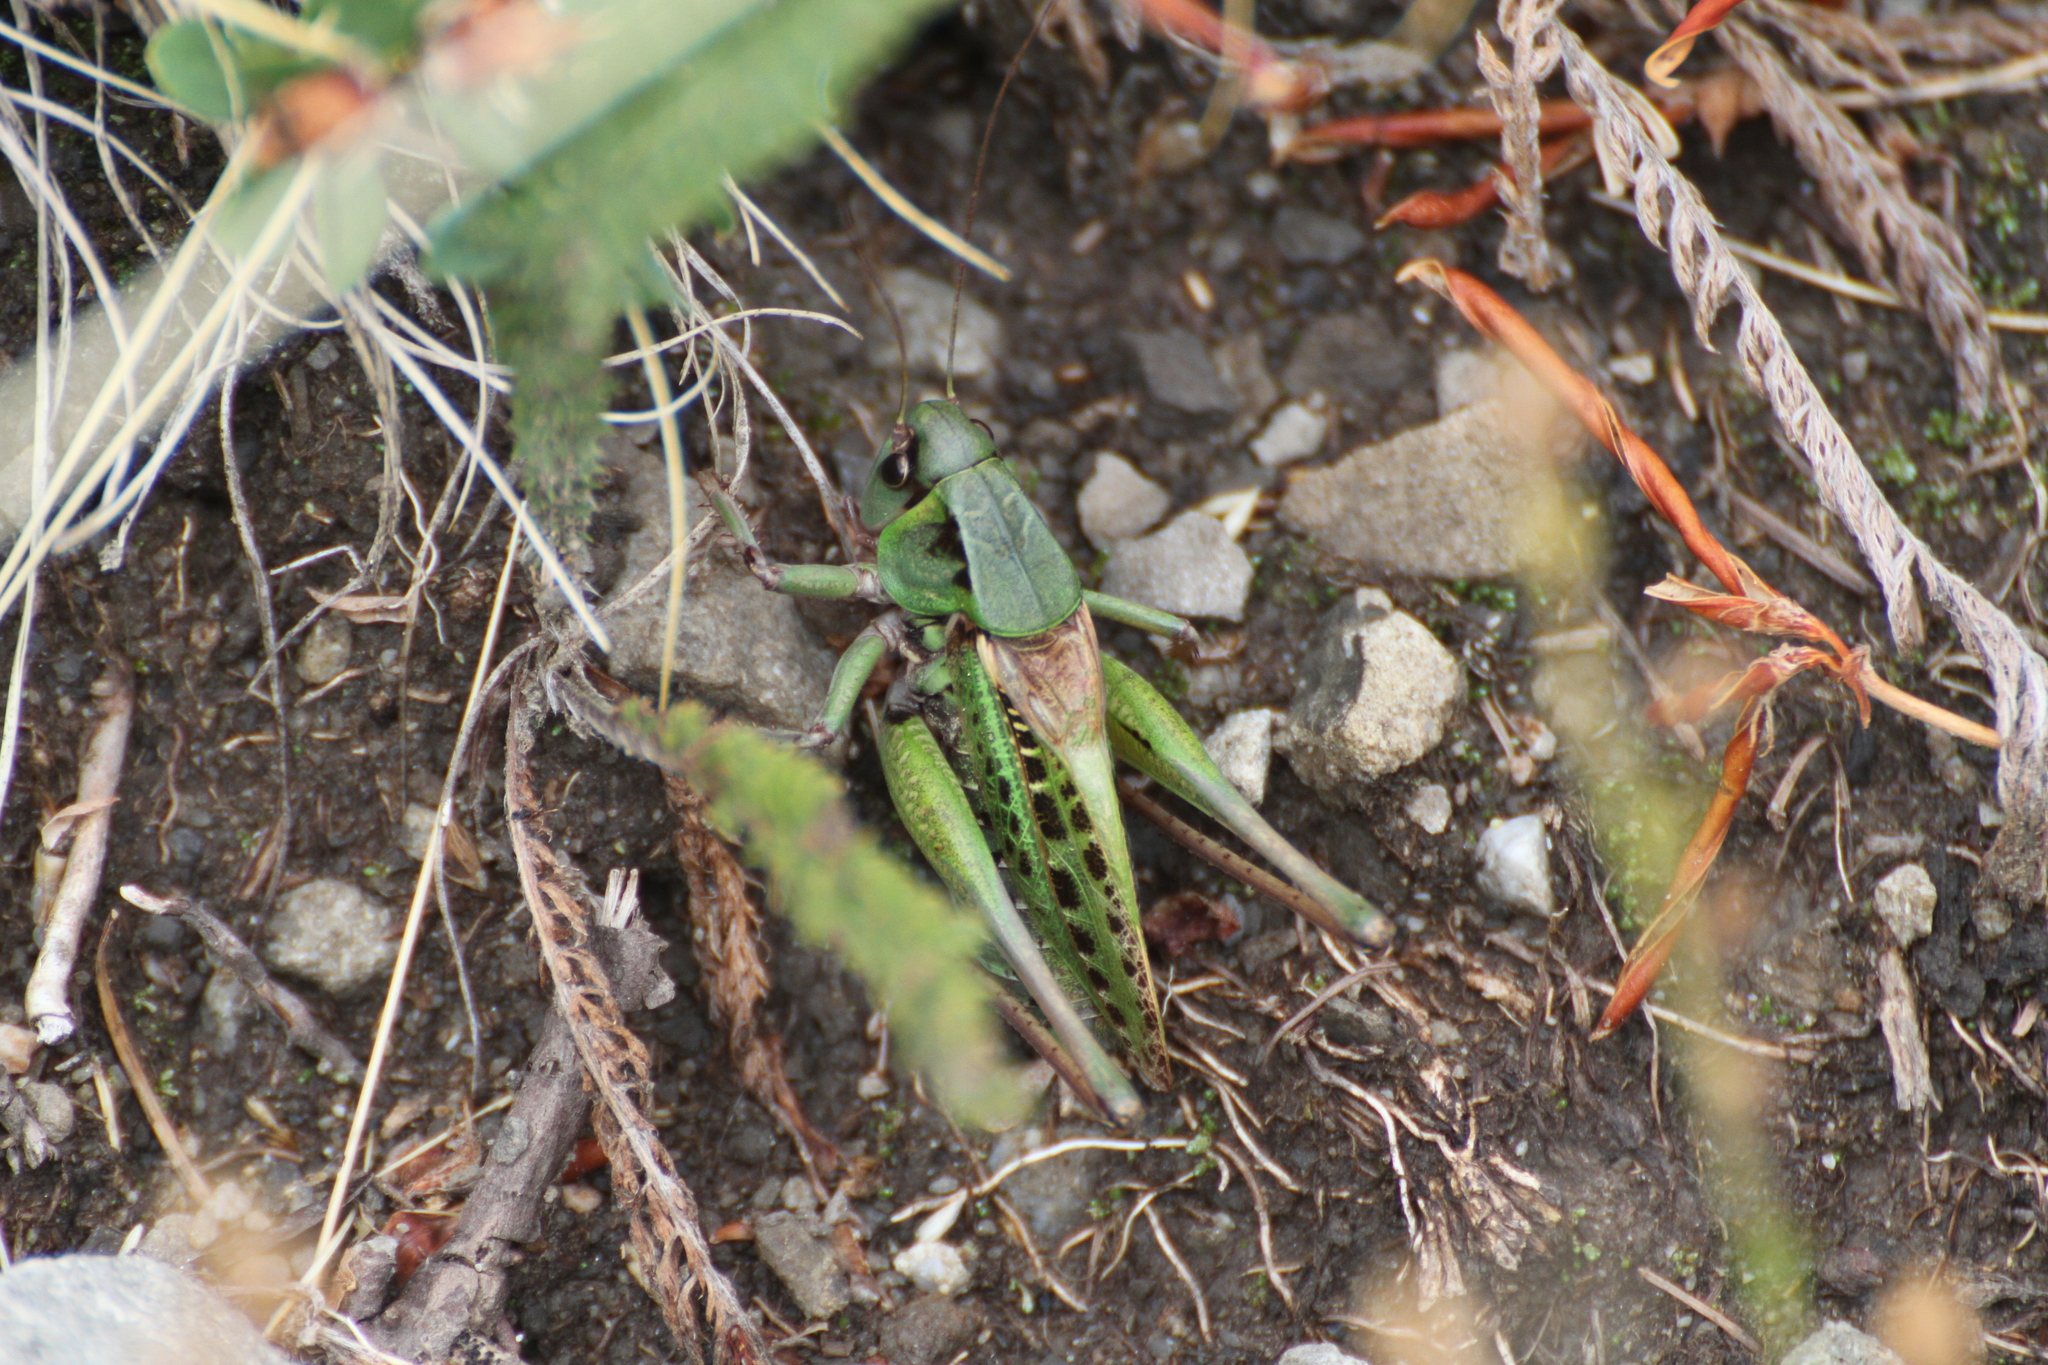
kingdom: Animalia
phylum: Arthropoda
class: Insecta
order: Orthoptera
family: Tettigoniidae
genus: Decticus
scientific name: Decticus verrucivorus
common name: Wart-biter
